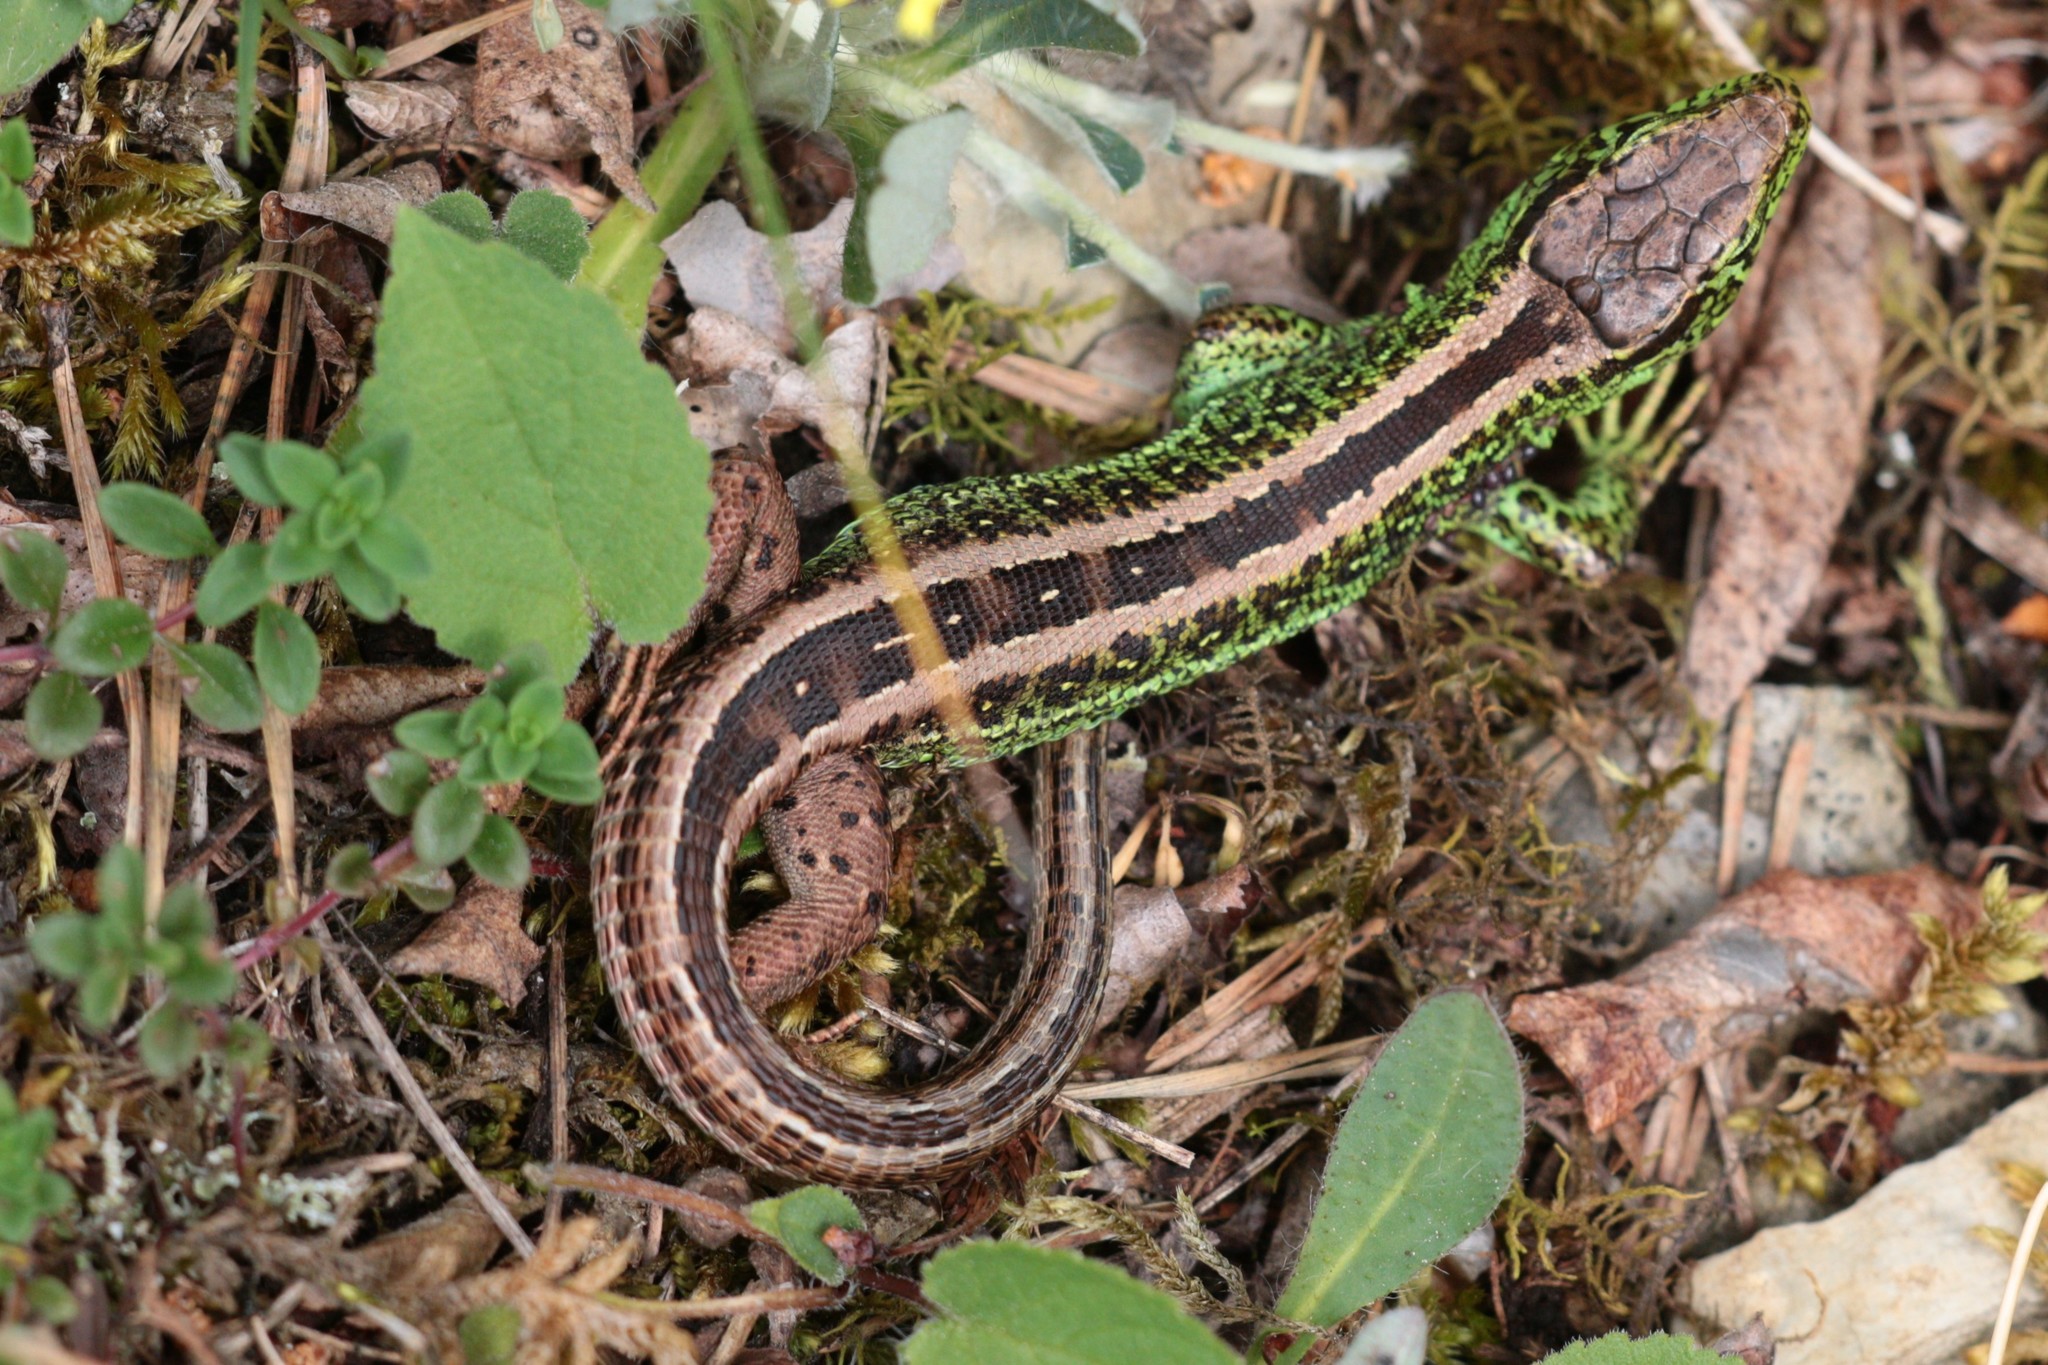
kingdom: Animalia
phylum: Chordata
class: Squamata
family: Lacertidae
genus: Lacerta
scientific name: Lacerta agilis
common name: Sand lizard
